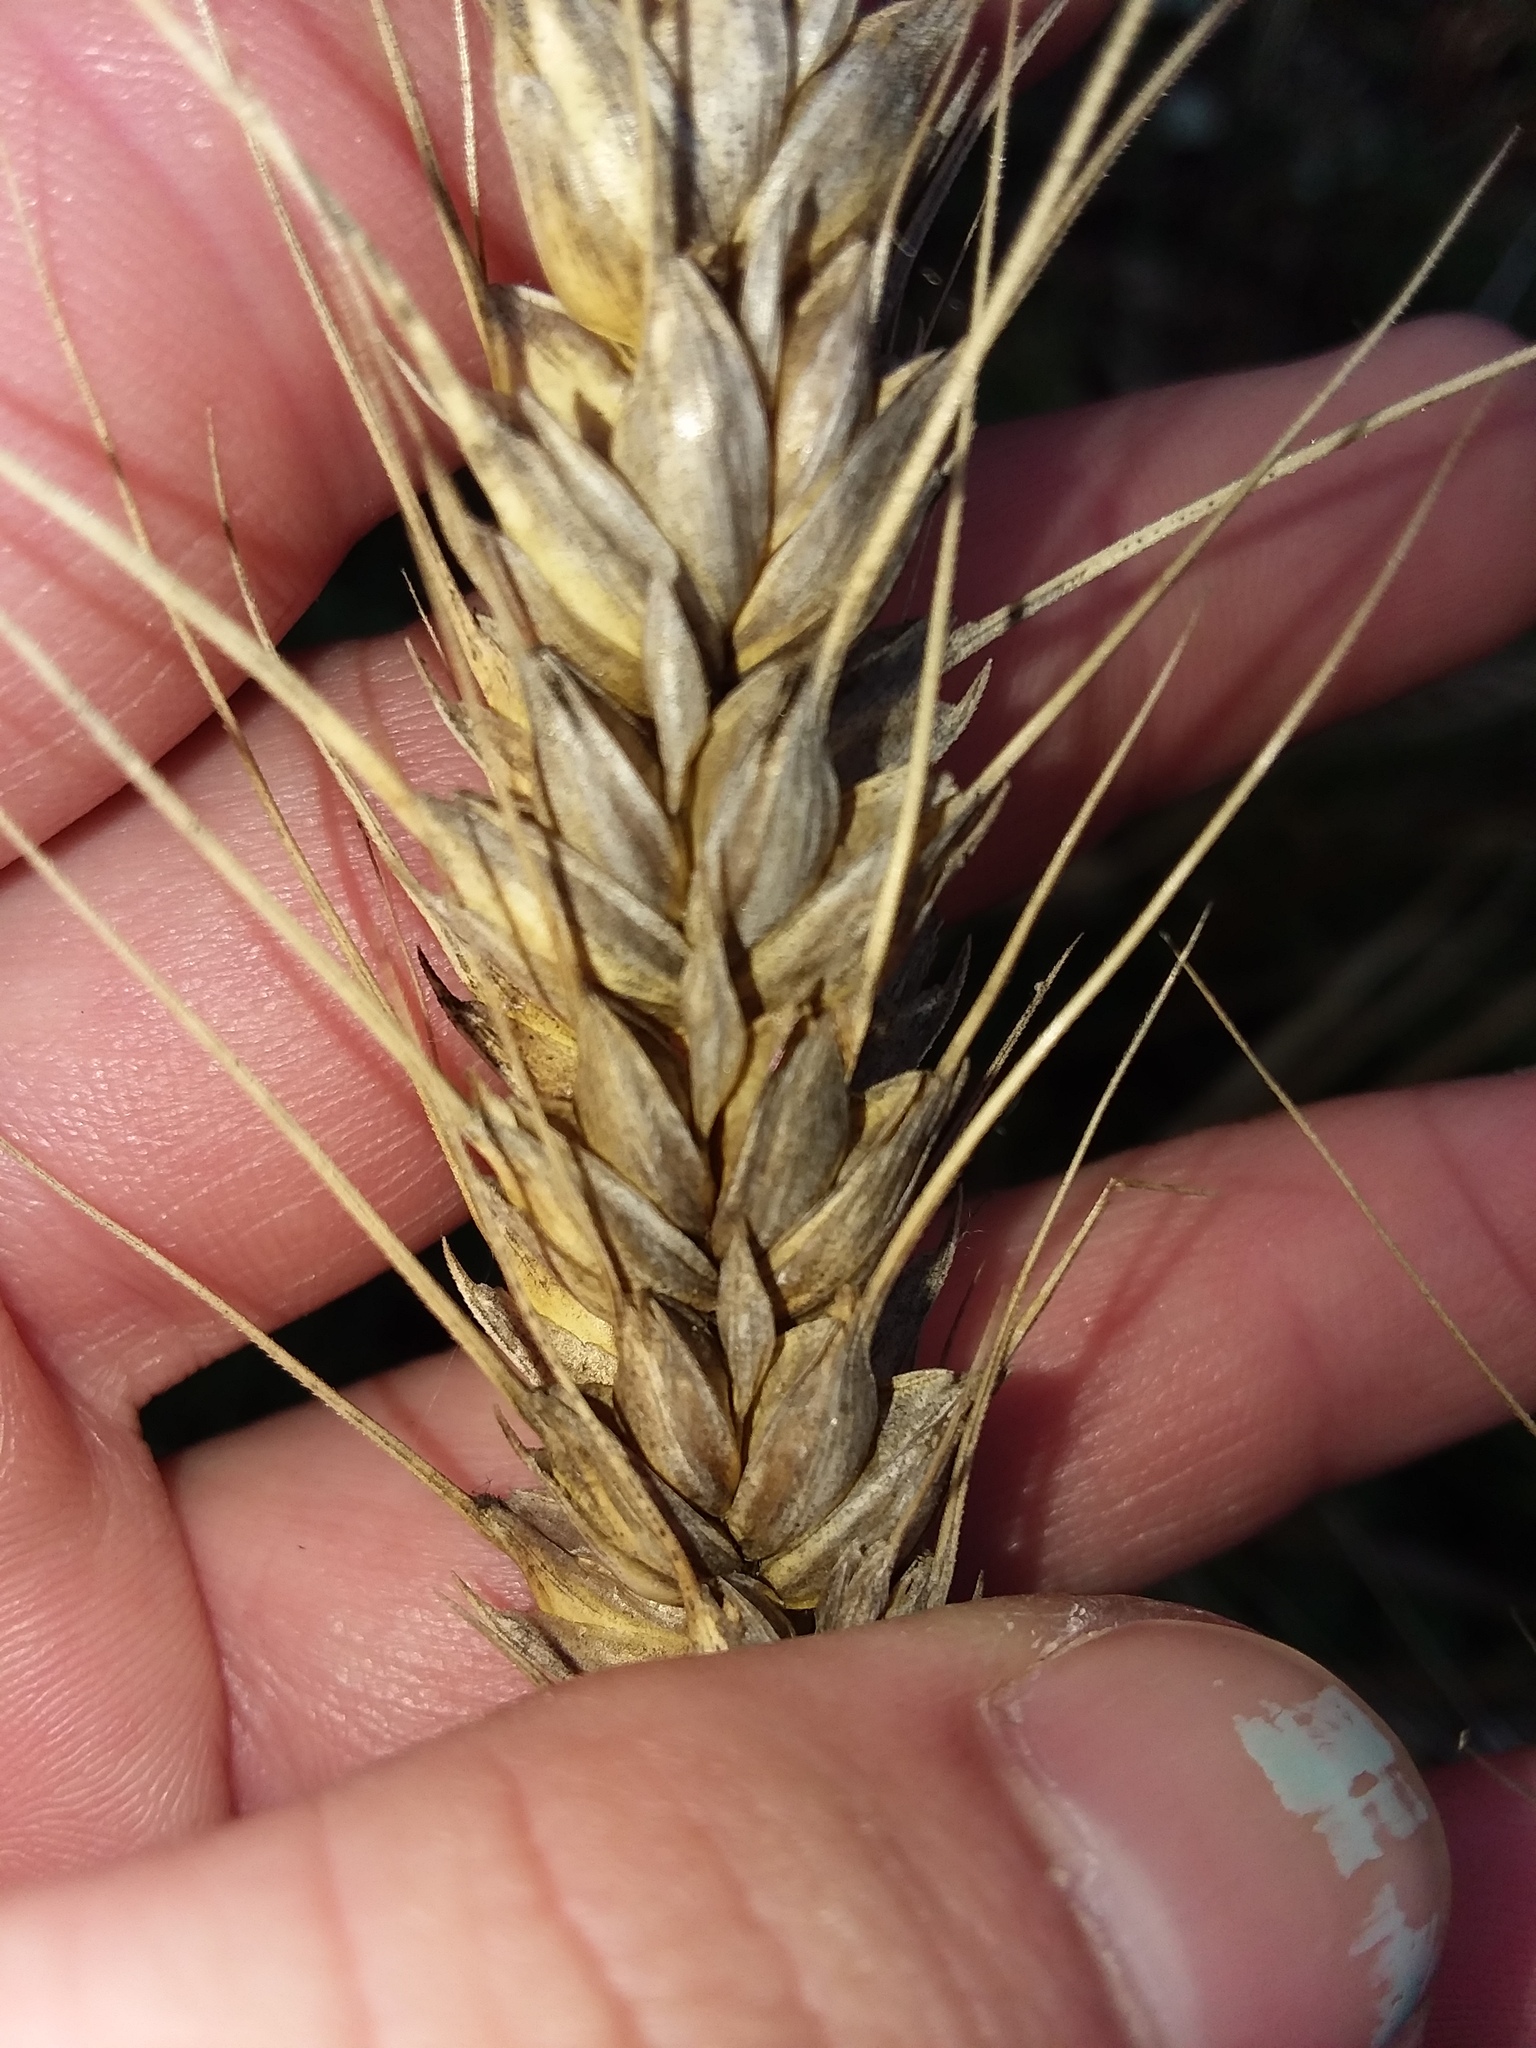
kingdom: Plantae
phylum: Tracheophyta
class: Liliopsida
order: Poales
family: Poaceae
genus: Triticum
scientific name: Triticum aestivum
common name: Common wheat
